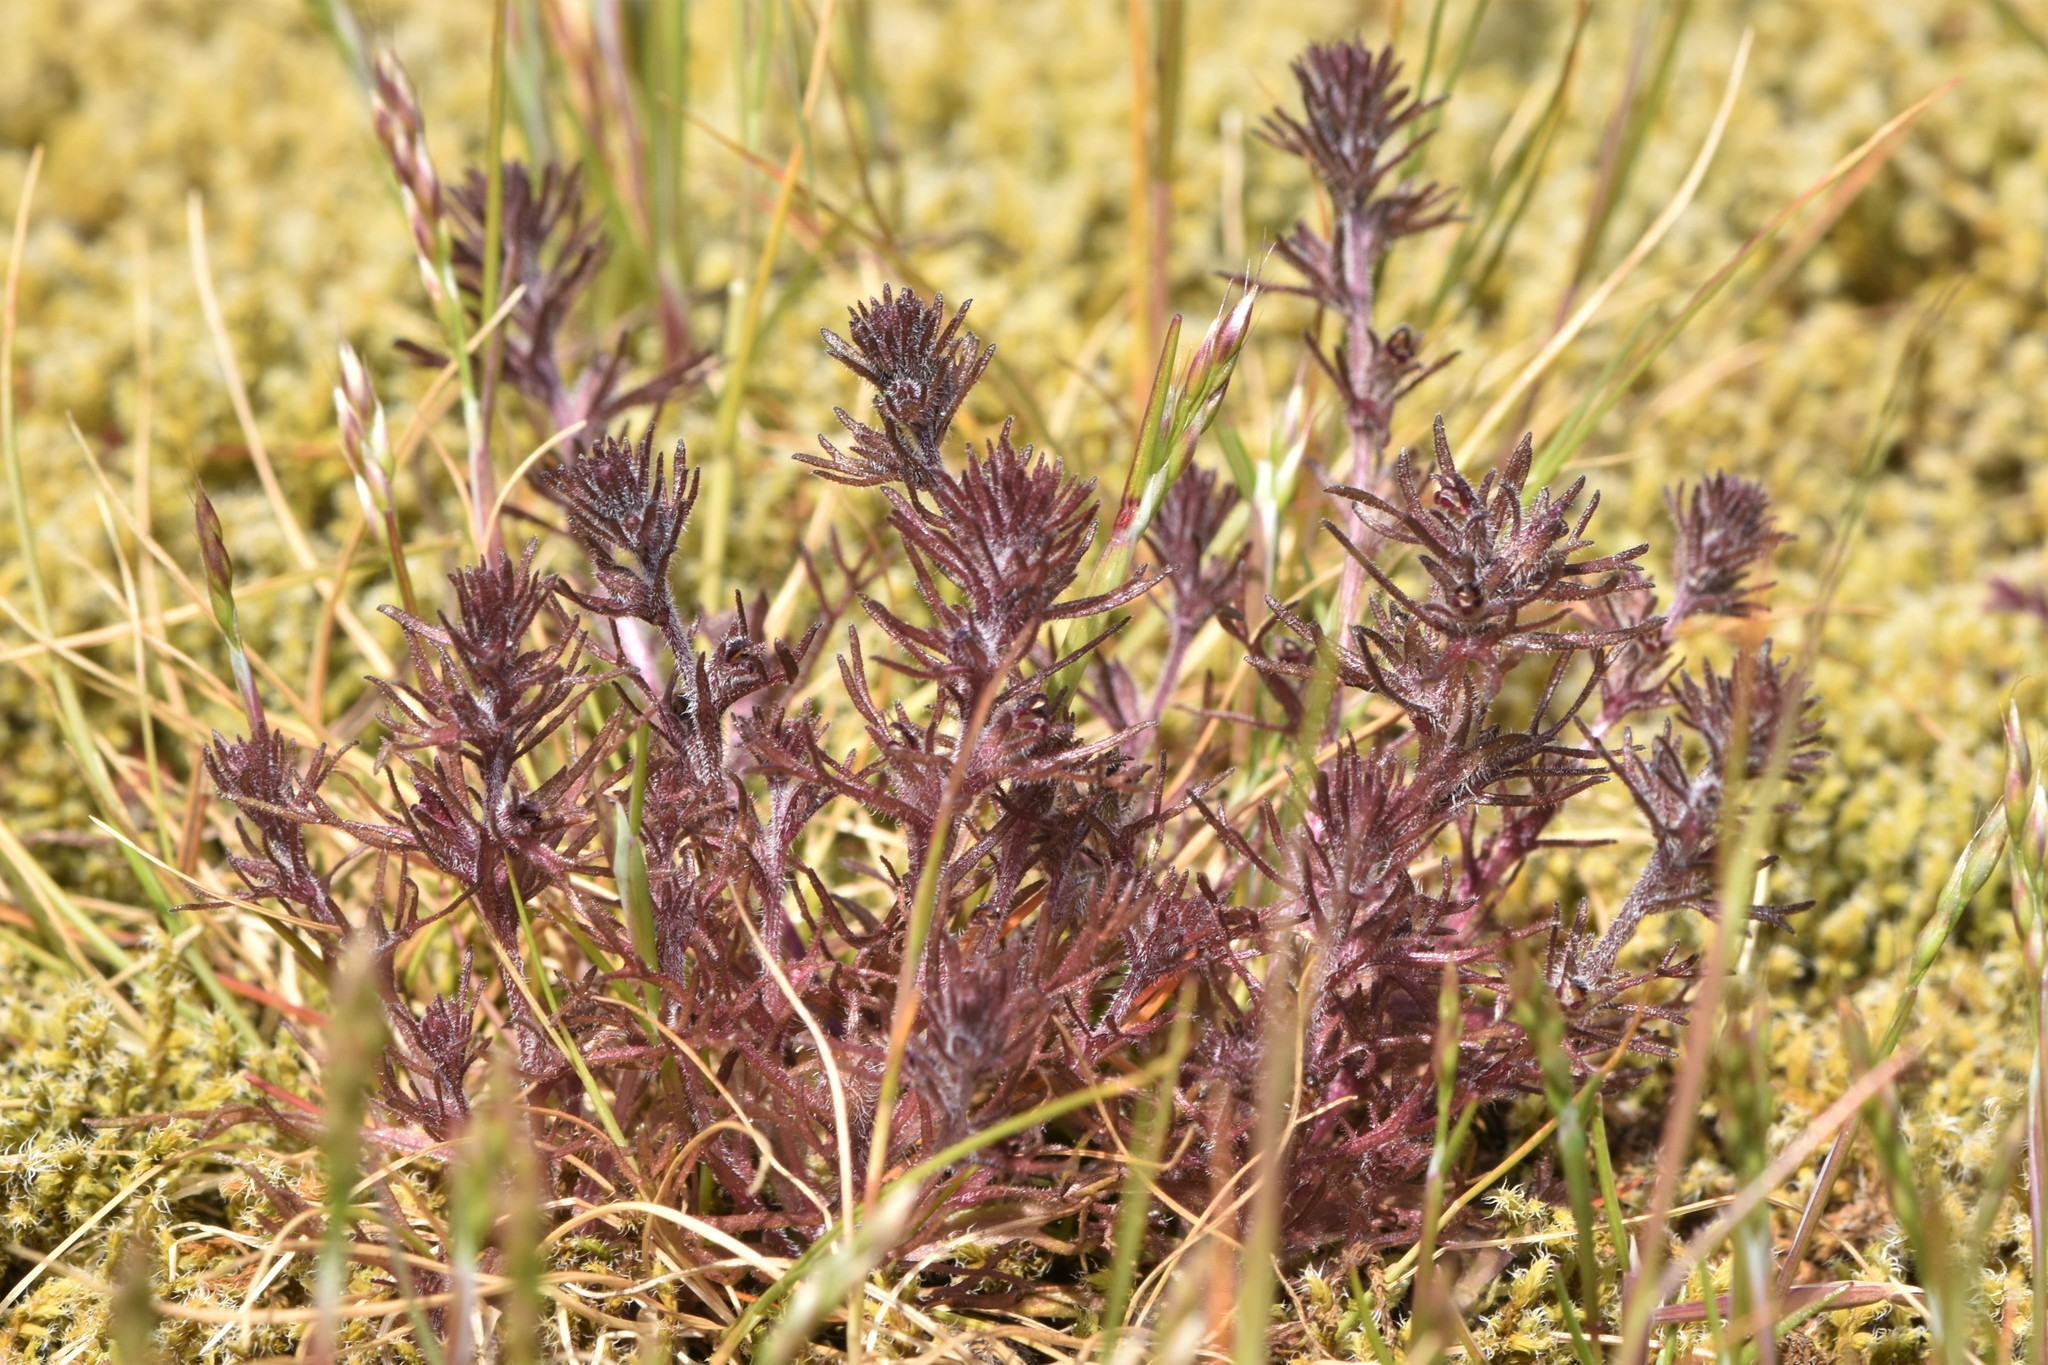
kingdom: Plantae
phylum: Tracheophyta
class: Magnoliopsida
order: Lamiales
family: Orobanchaceae
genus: Triphysaria
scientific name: Triphysaria pusilla
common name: Dwarf false owl-clover
